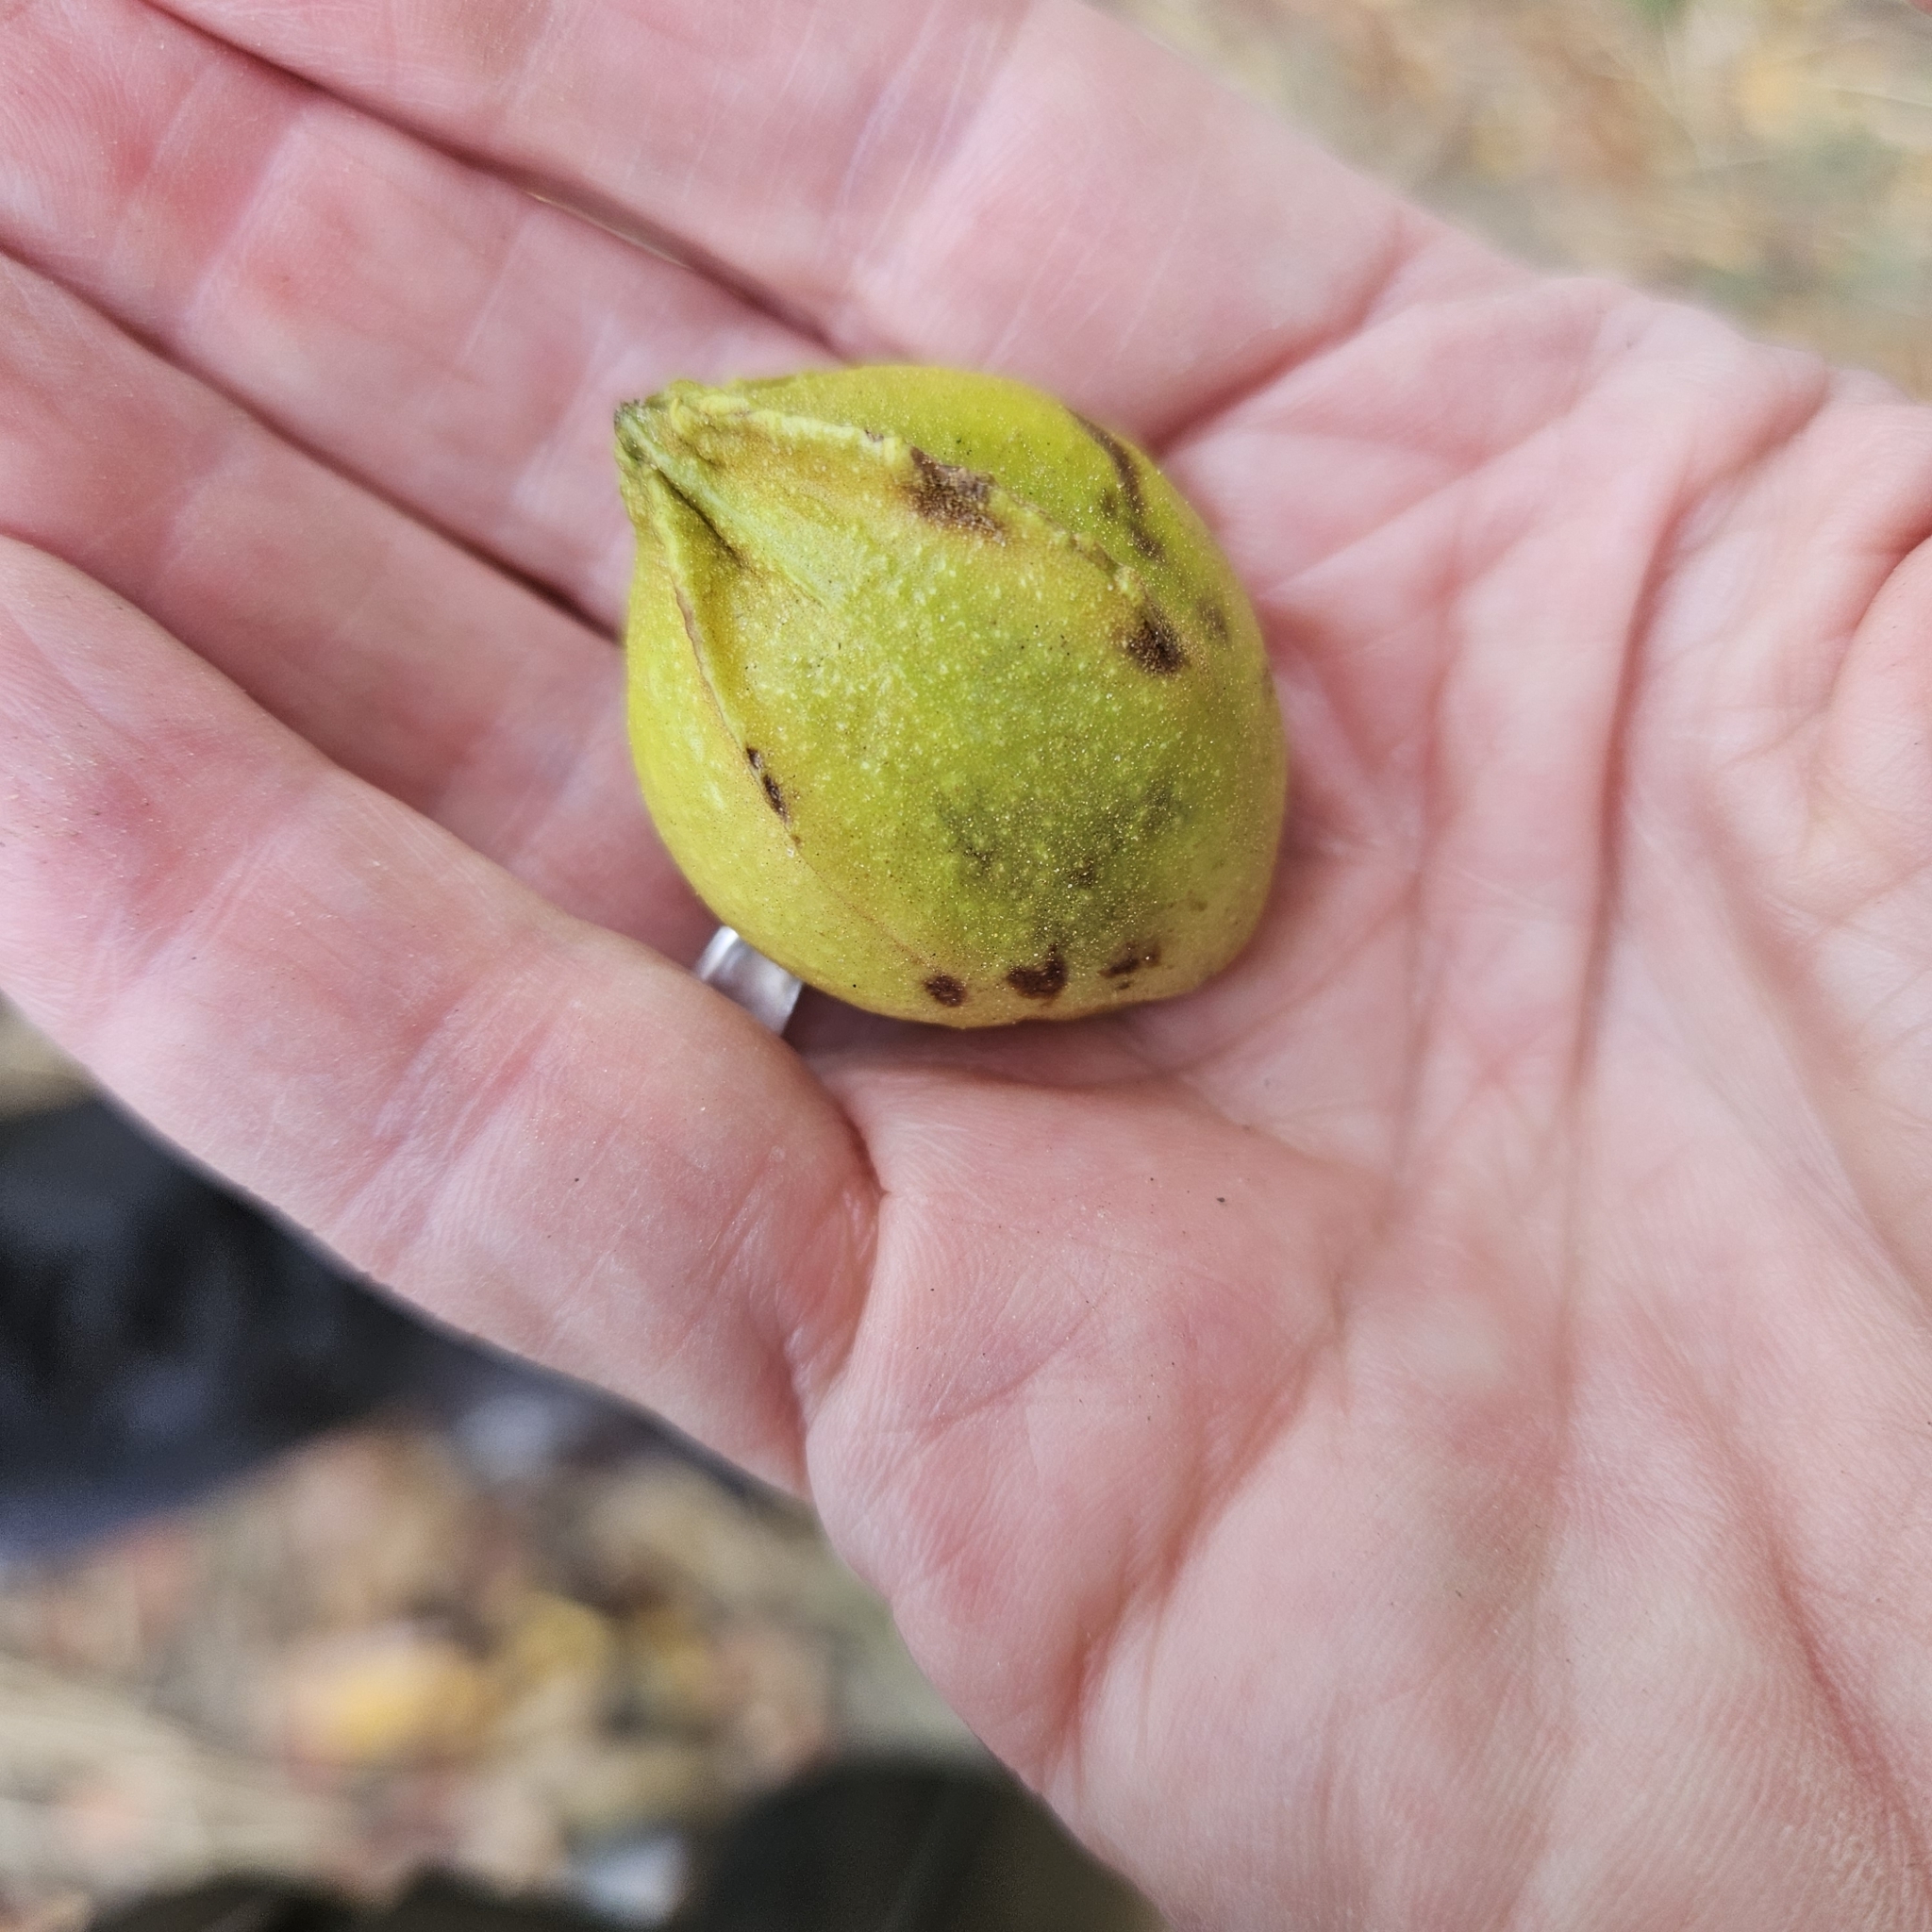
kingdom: Plantae
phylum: Tracheophyta
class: Magnoliopsida
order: Fagales
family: Juglandaceae
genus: Carya
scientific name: Carya cordiformis
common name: Bitternut hickory
